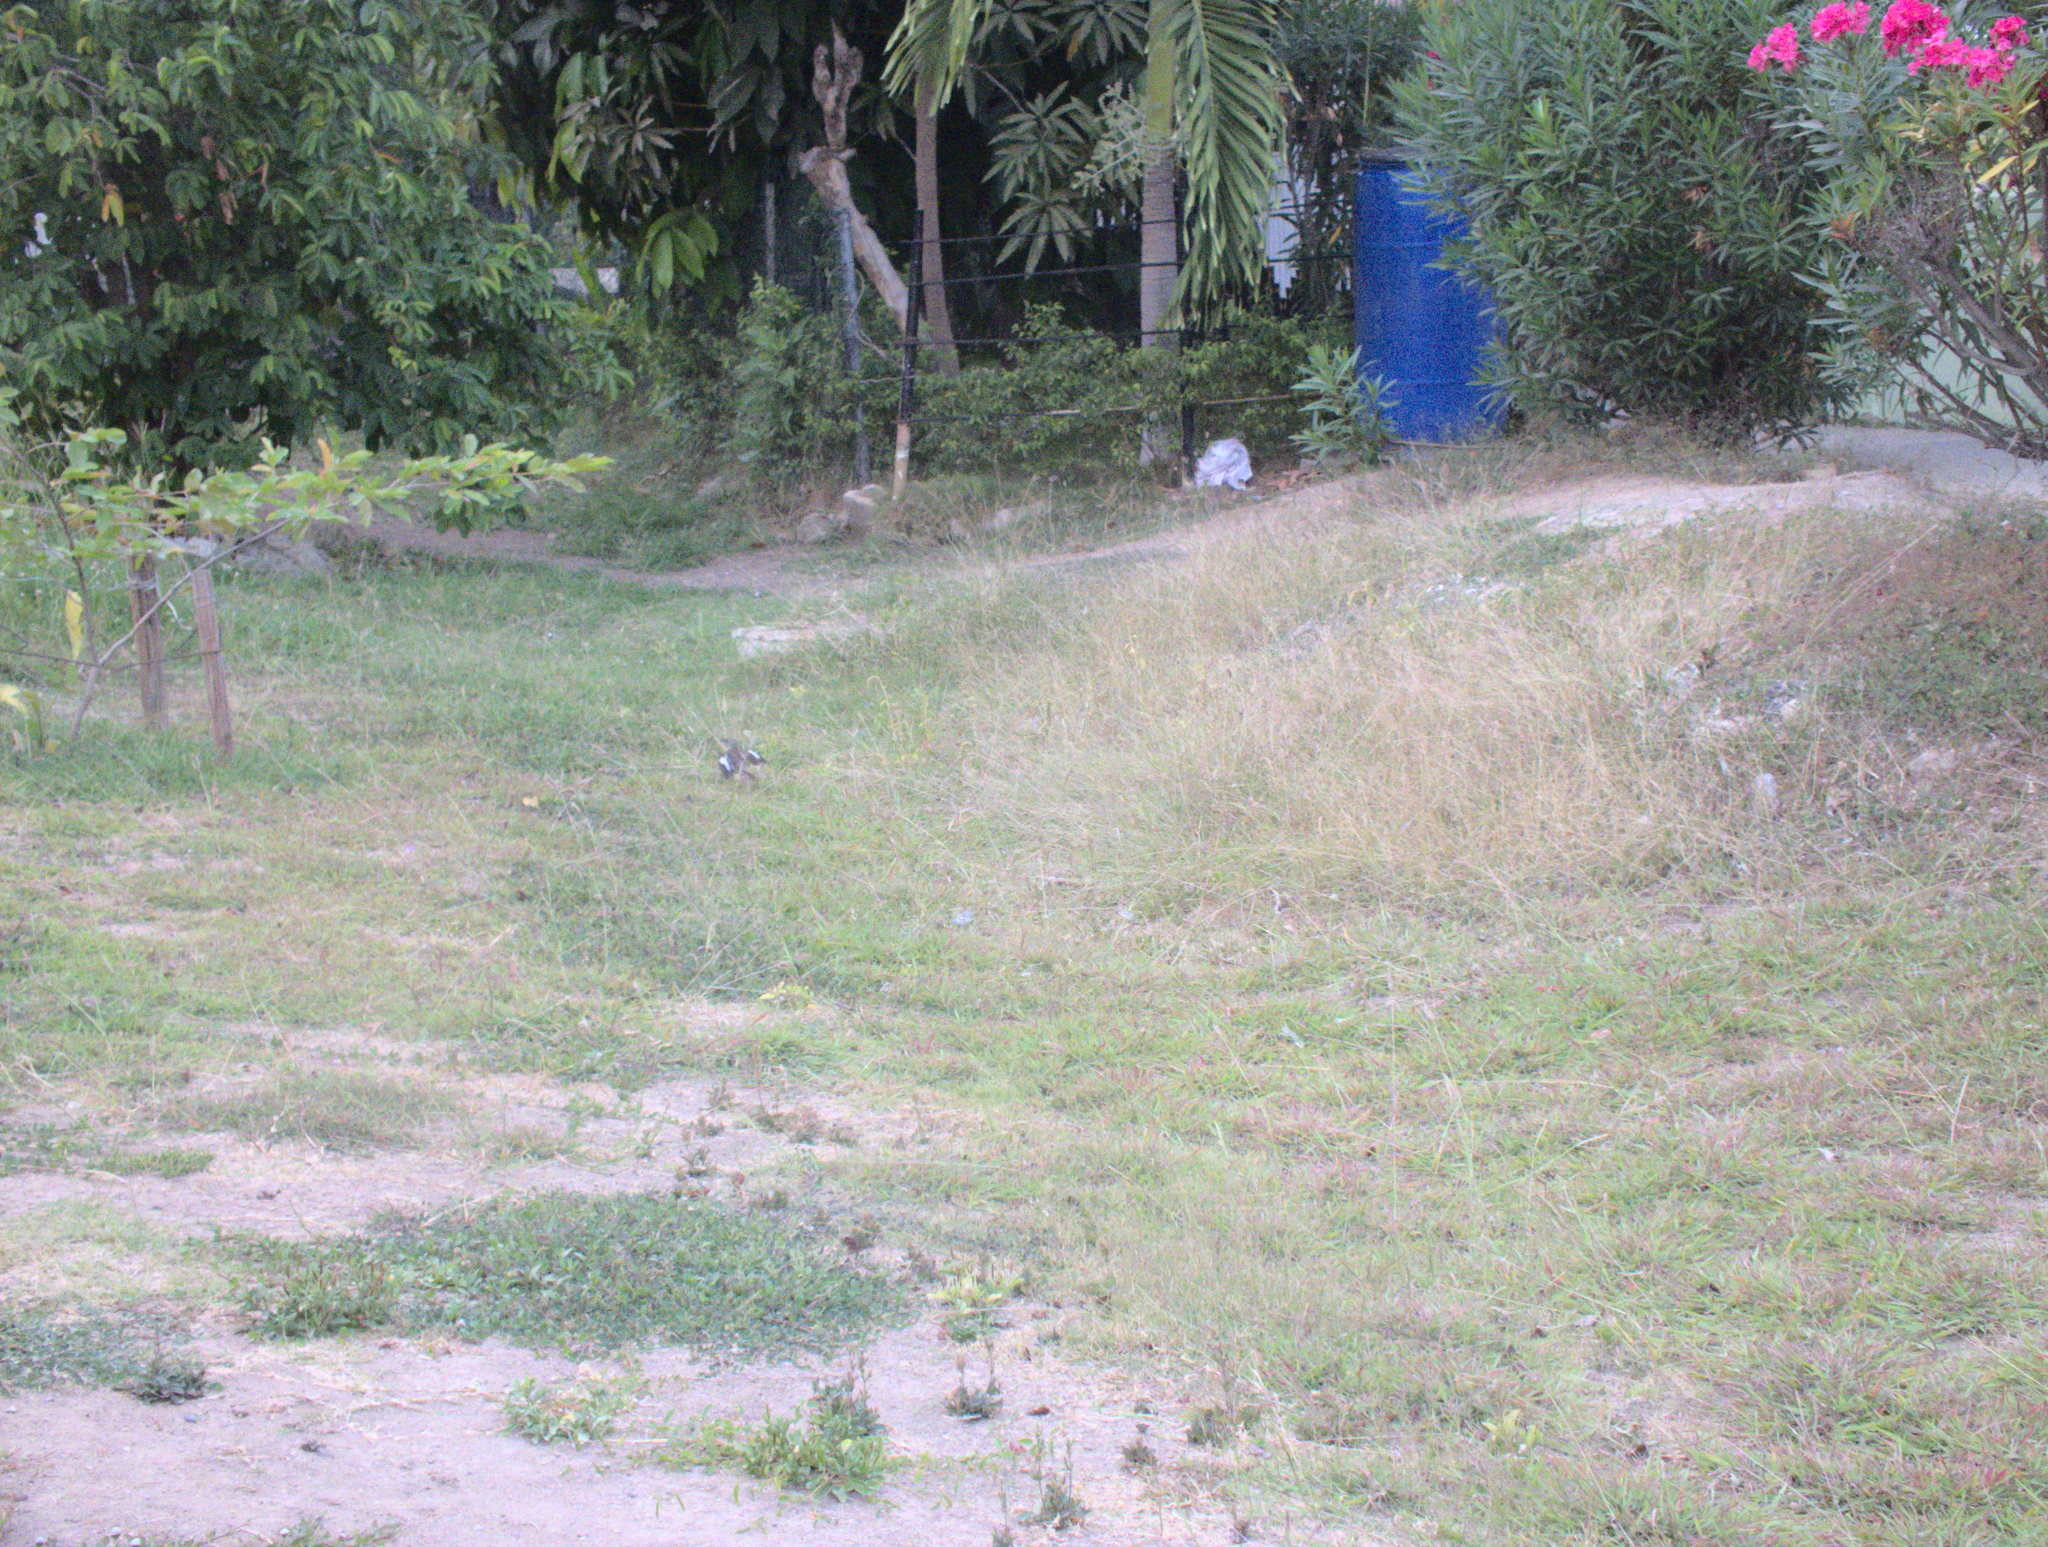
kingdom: Animalia
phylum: Chordata
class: Aves
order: Passeriformes
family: Mimidae
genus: Mimus
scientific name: Mimus polyglottos
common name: Northern mockingbird
